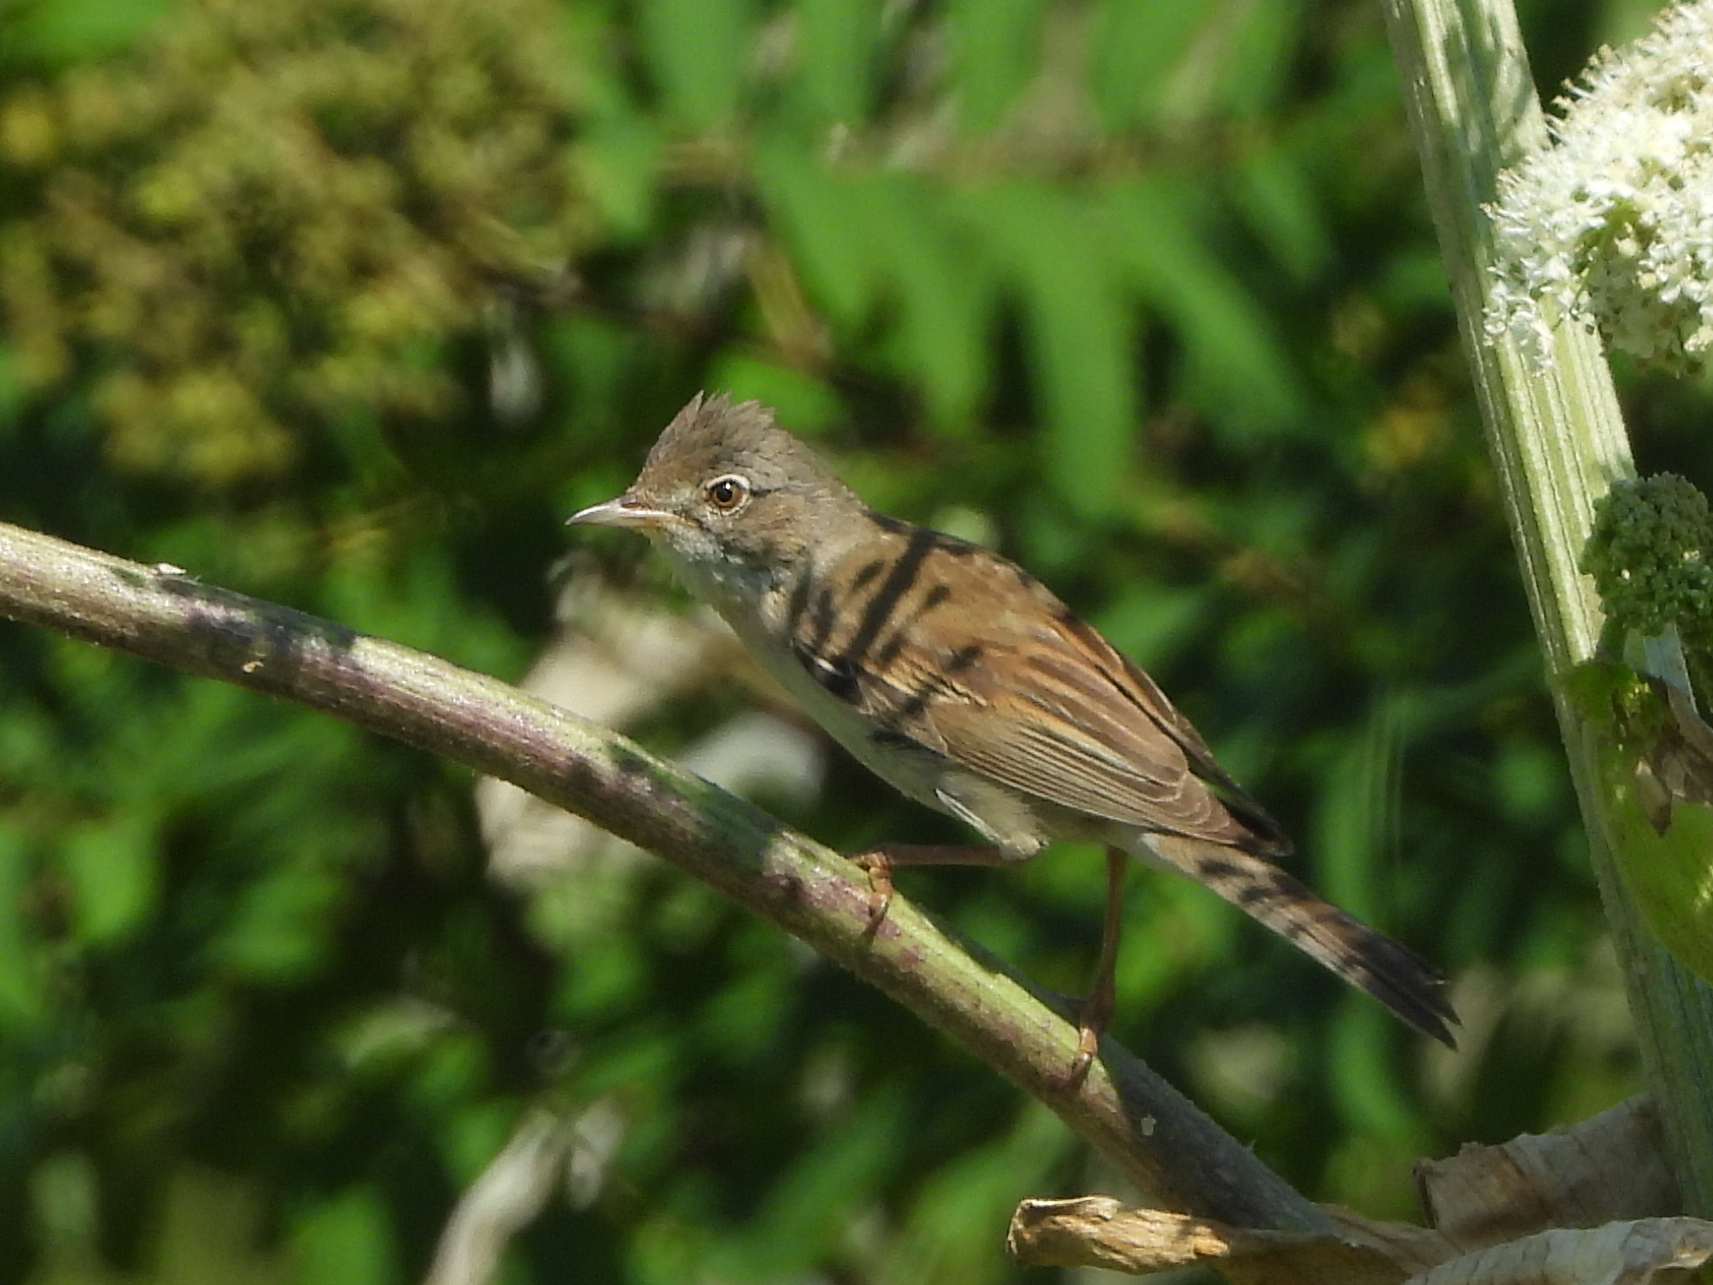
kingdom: Animalia
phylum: Chordata
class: Aves
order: Passeriformes
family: Sylviidae
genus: Sylvia
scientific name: Sylvia communis
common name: Common whitethroat
